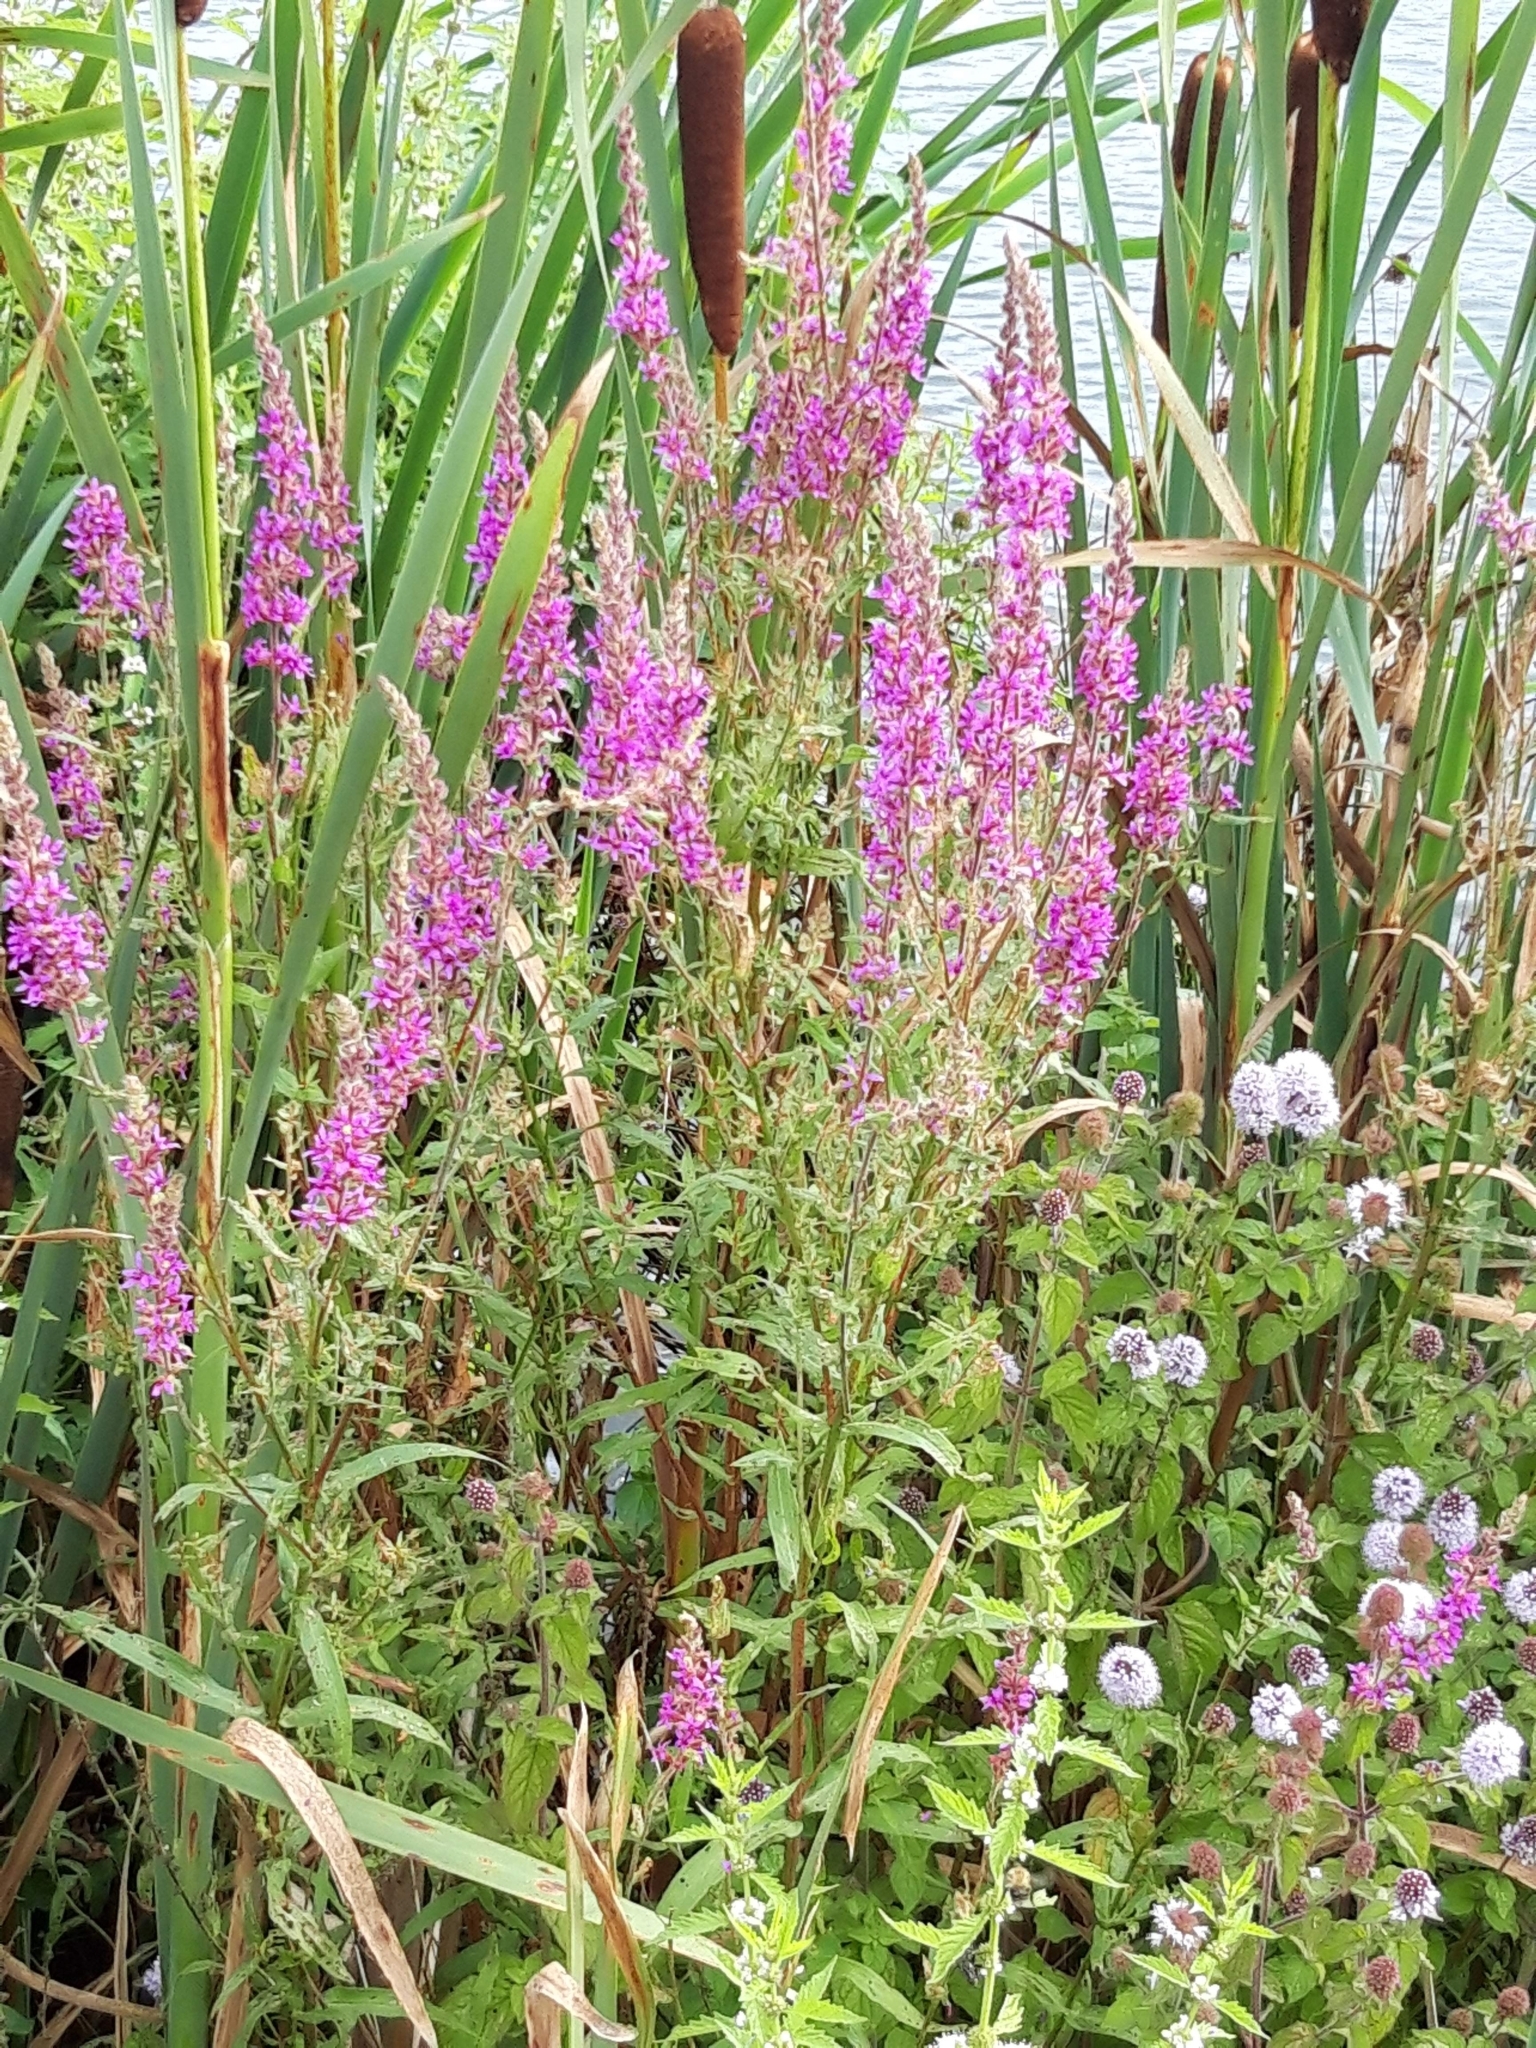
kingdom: Plantae
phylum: Tracheophyta
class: Magnoliopsida
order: Myrtales
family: Lythraceae
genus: Lythrum
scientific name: Lythrum salicaria
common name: Purple loosestrife
